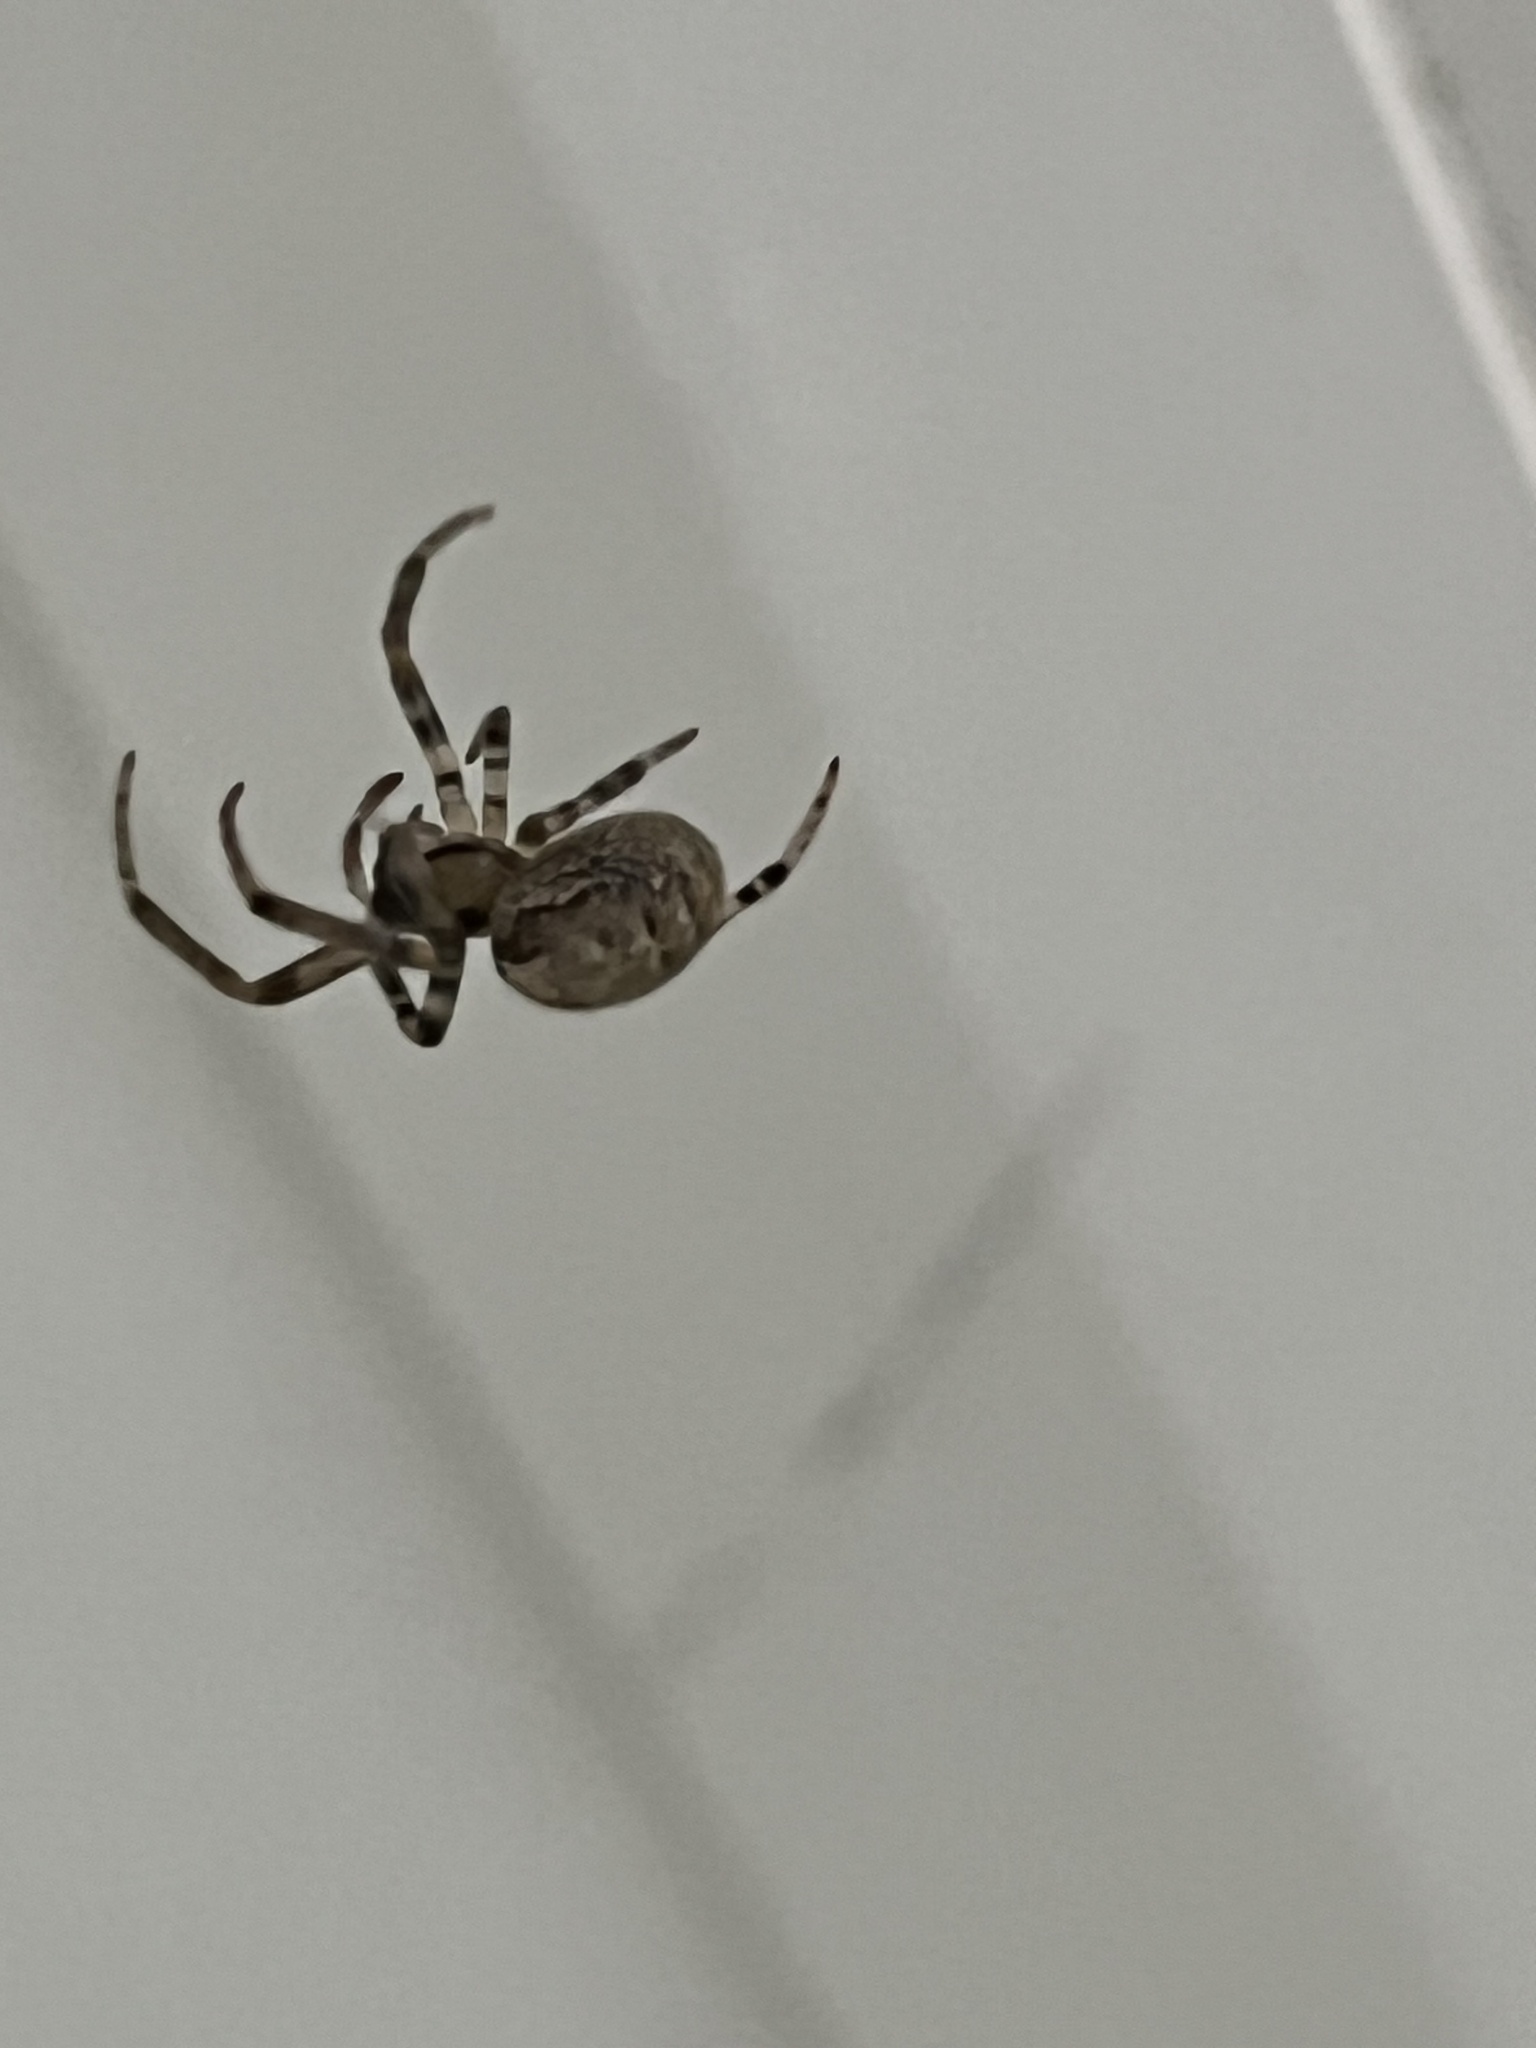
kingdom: Animalia
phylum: Arthropoda
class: Arachnida
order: Araneae
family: Araneidae
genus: Zygiella
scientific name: Zygiella x-notata
